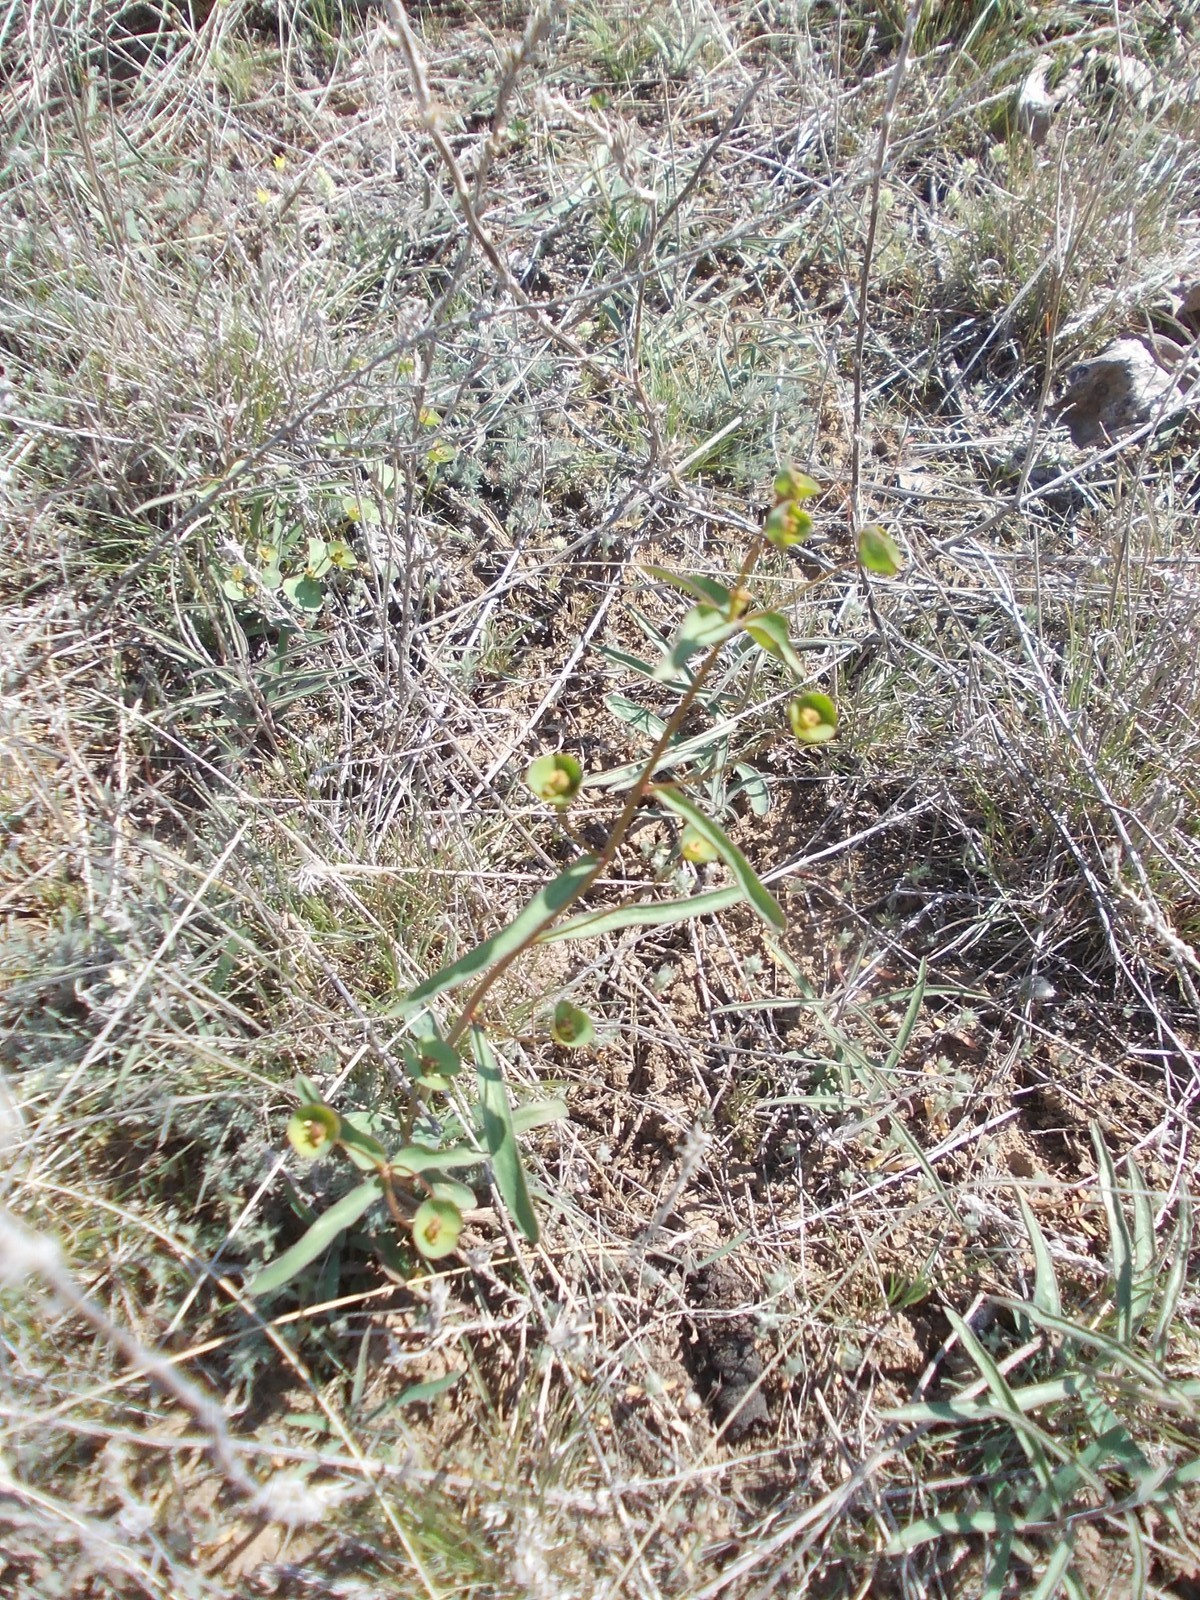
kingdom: Plantae
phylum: Tracheophyta
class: Magnoliopsida
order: Malpighiales
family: Euphorbiaceae
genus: Euphorbia
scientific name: Euphorbia praecox
